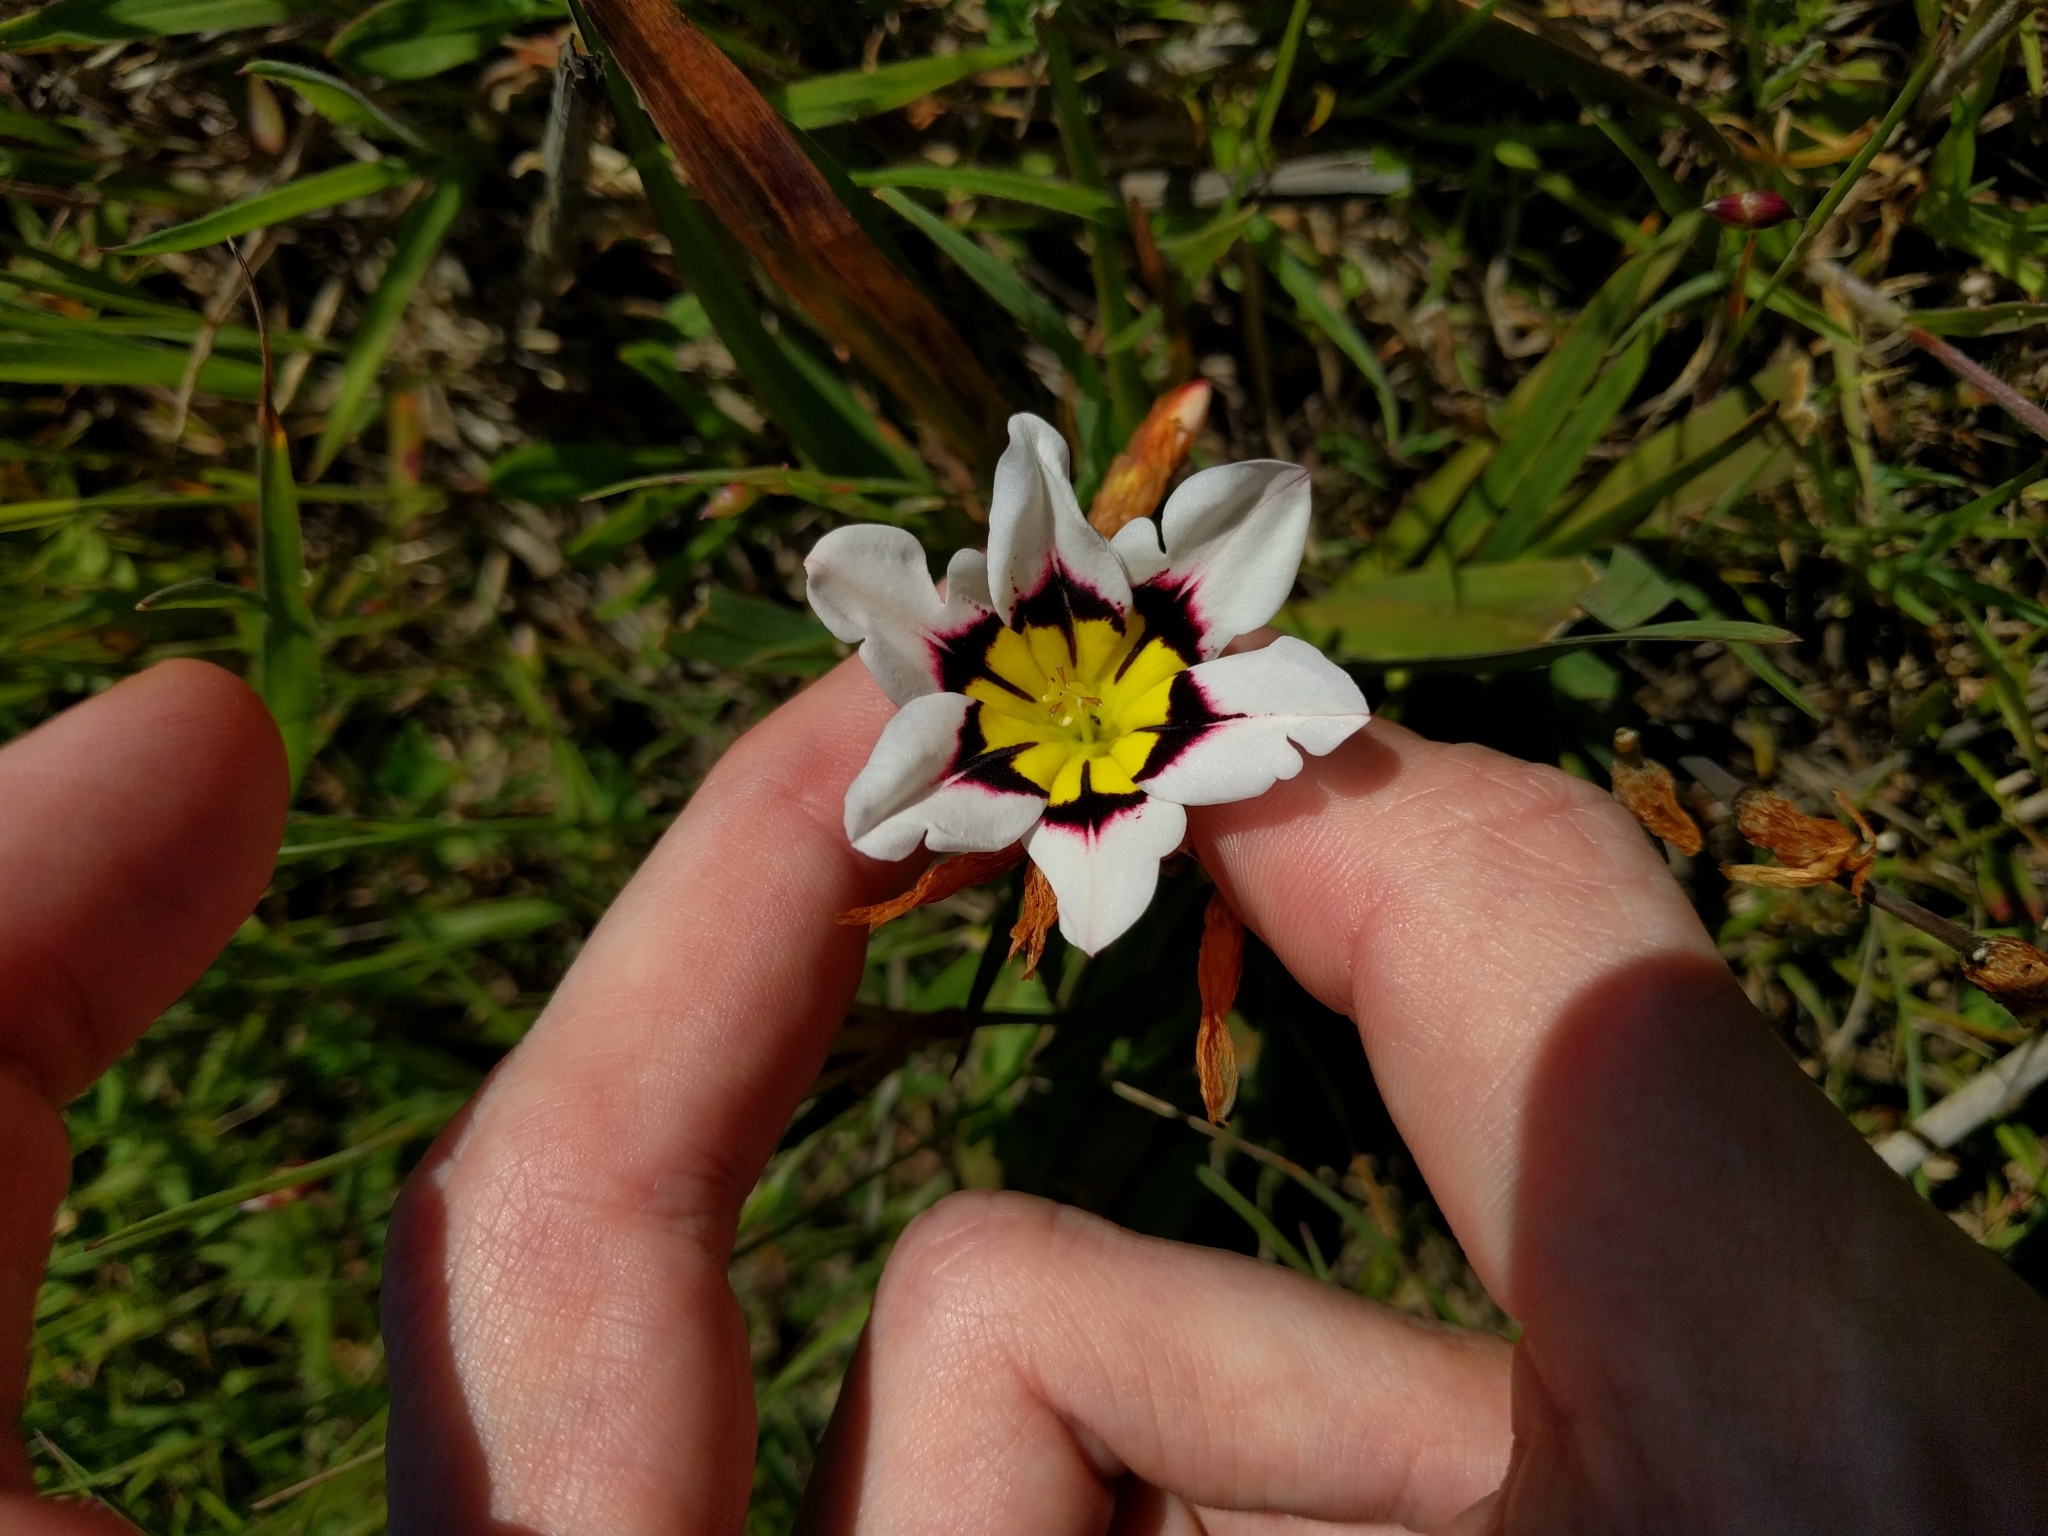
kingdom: Plantae
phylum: Tracheophyta
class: Liliopsida
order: Asparagales
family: Iridaceae
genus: Sparaxis
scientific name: Sparaxis tricolor
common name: Wandflower
